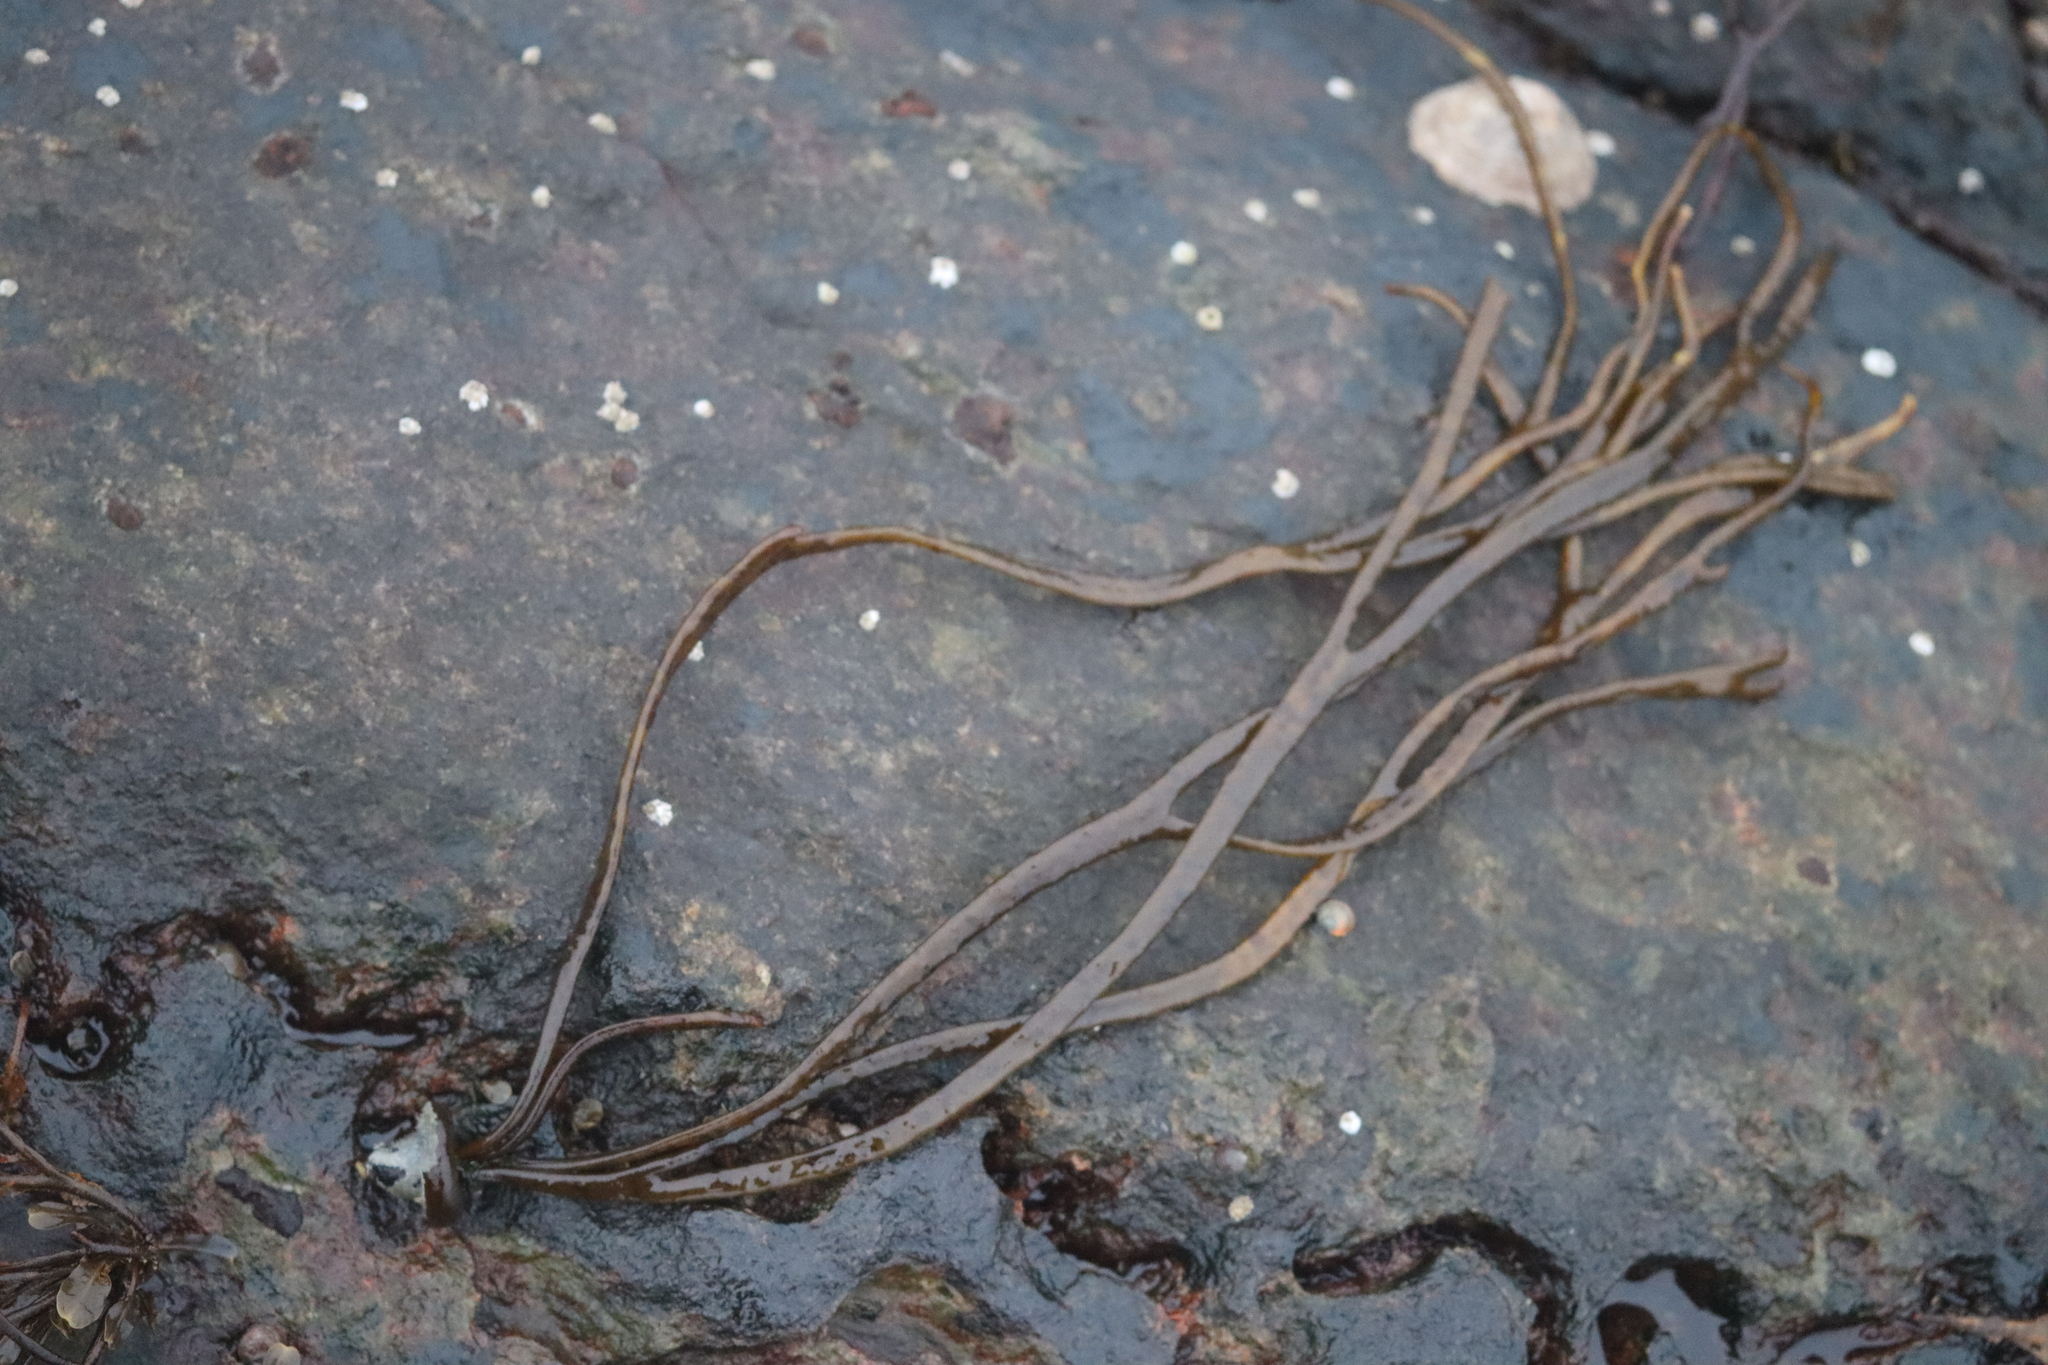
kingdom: Chromista
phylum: Ochrophyta
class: Phaeophyceae
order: Fucales
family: Himanthaliaceae
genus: Himanthalia
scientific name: Himanthalia elongata
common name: Sea-thong
